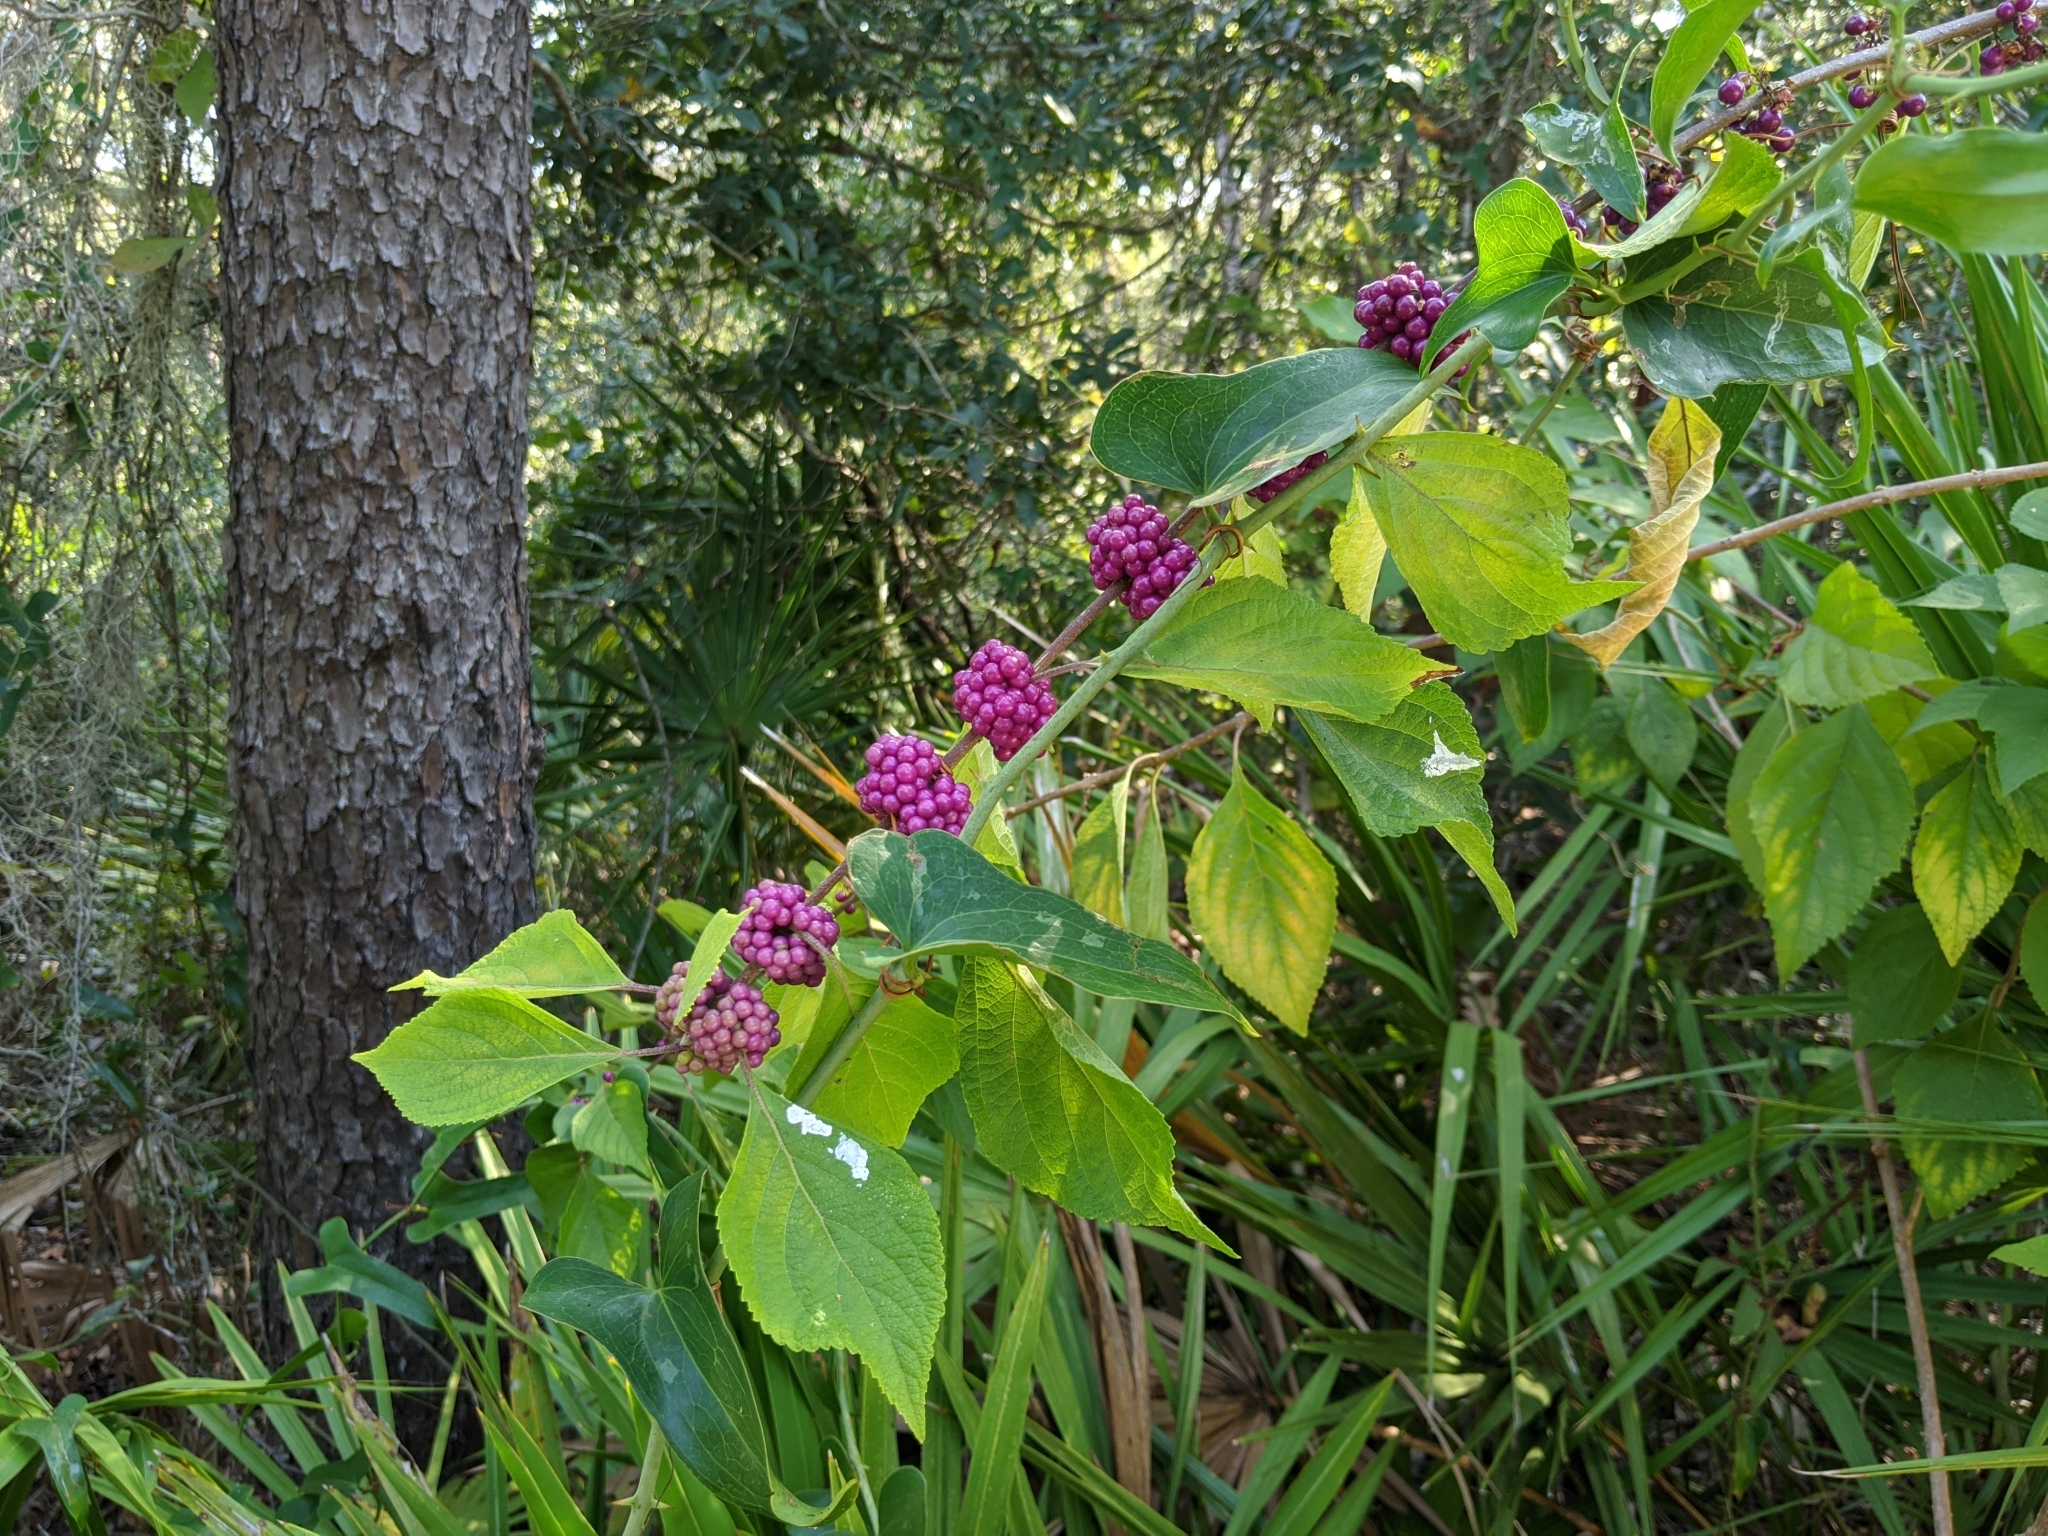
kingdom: Plantae
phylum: Tracheophyta
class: Magnoliopsida
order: Lamiales
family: Lamiaceae
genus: Callicarpa
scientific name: Callicarpa americana
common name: American beautyberry
